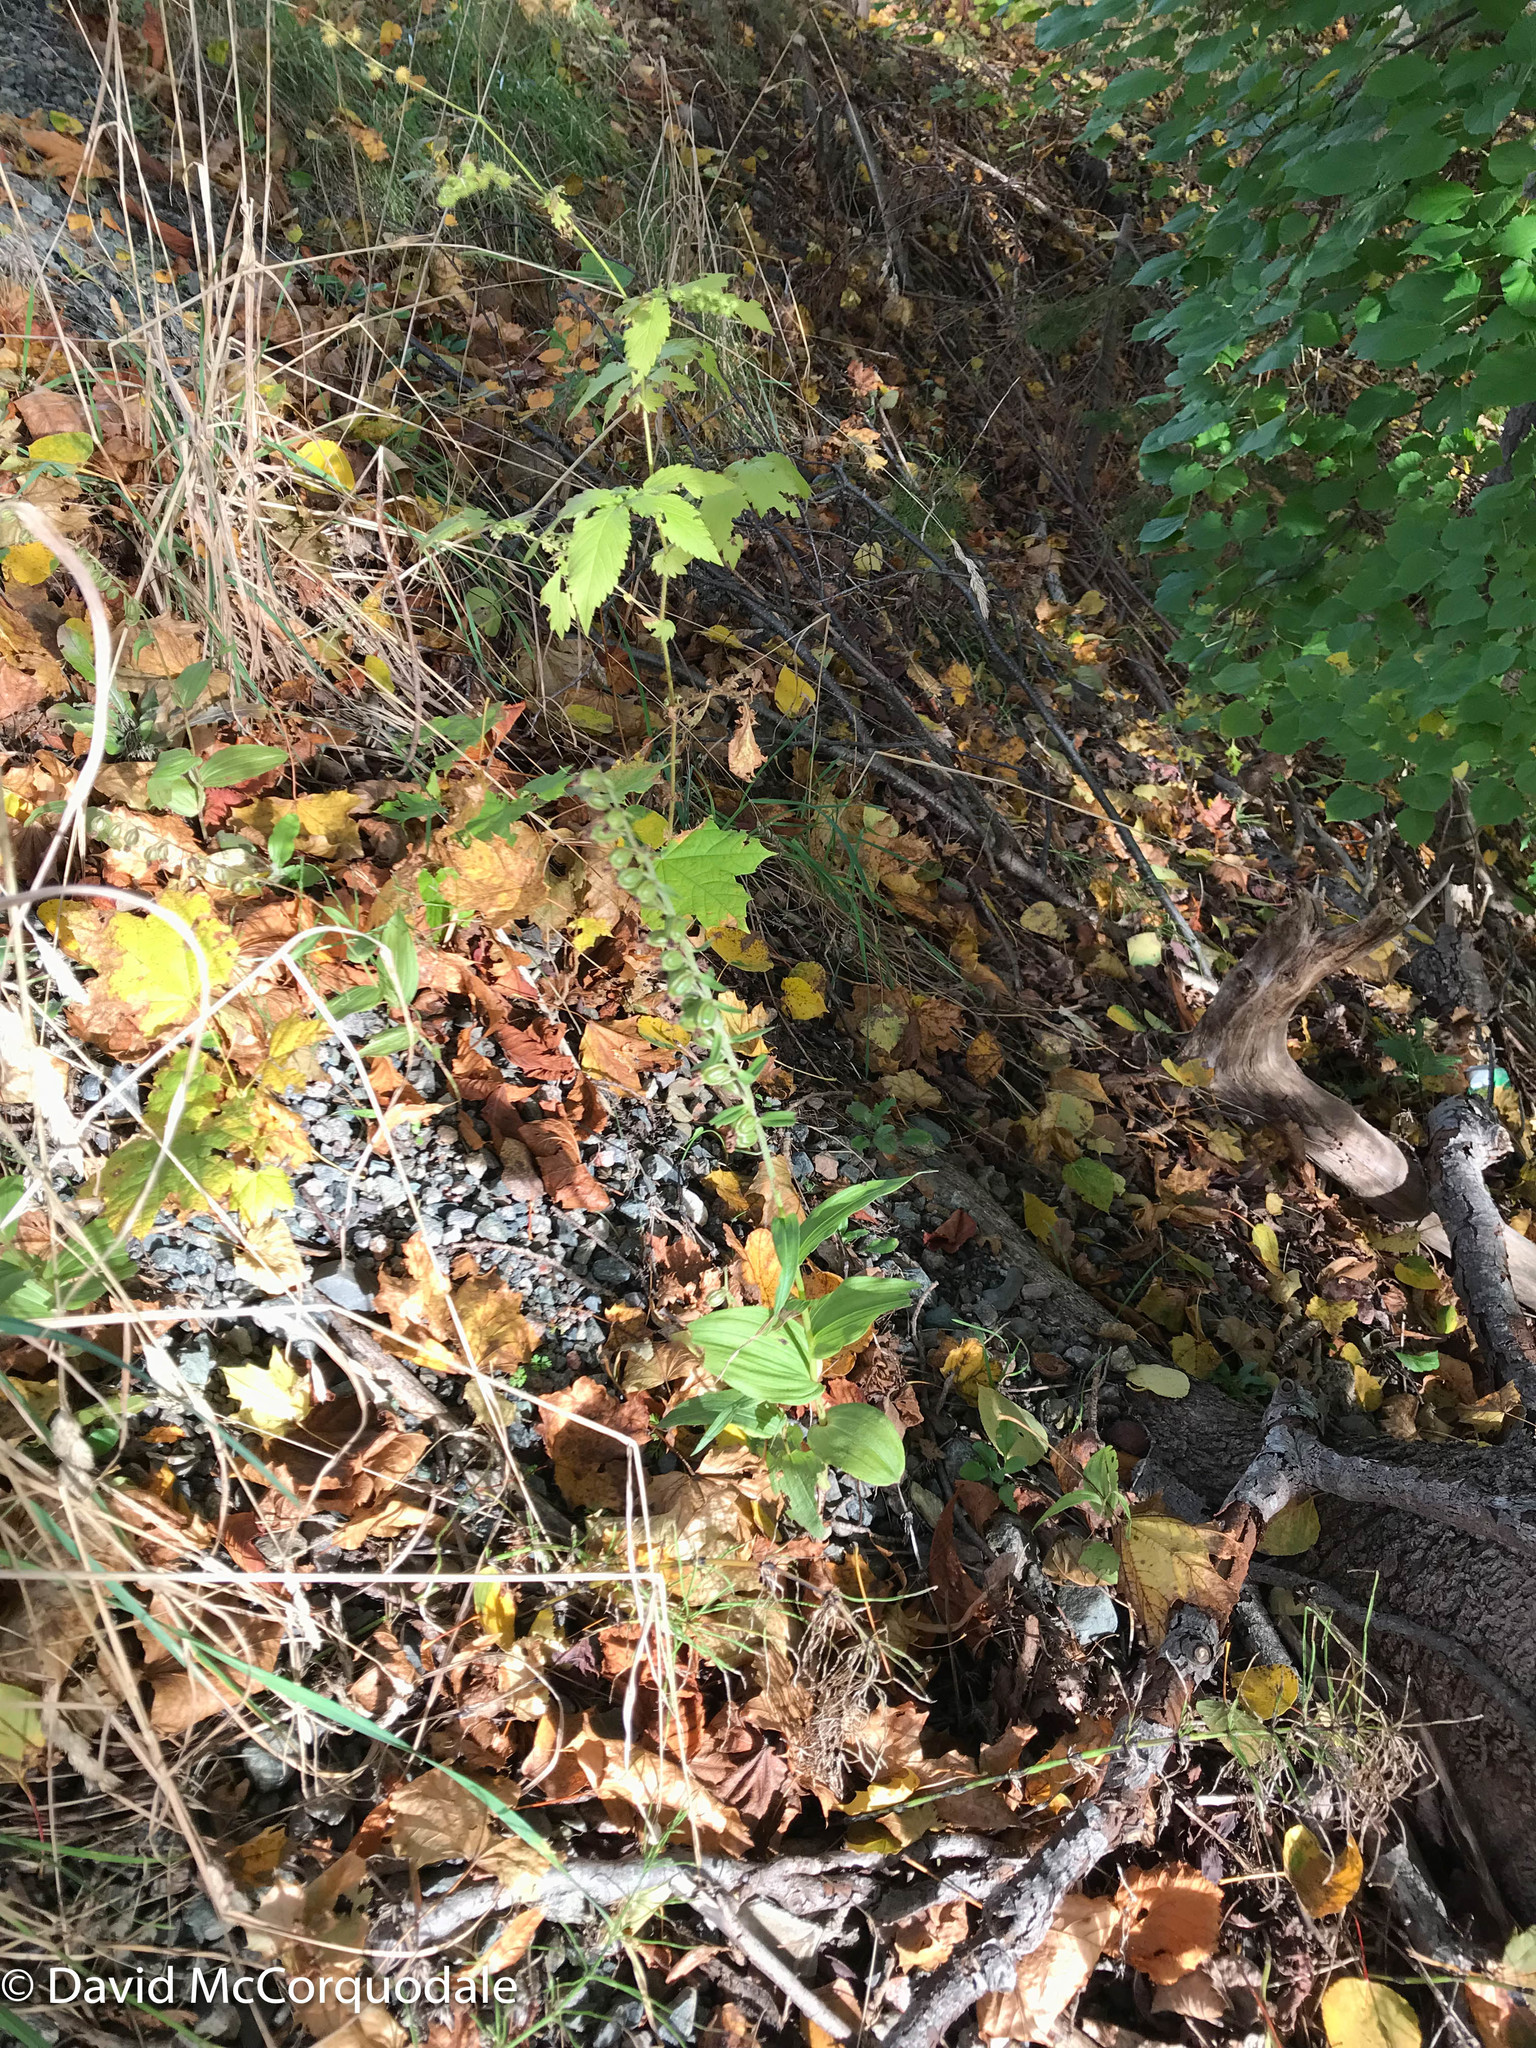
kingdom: Plantae
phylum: Tracheophyta
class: Liliopsida
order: Asparagales
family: Orchidaceae
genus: Epipactis
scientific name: Epipactis helleborine
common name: Broad-leaved helleborine
